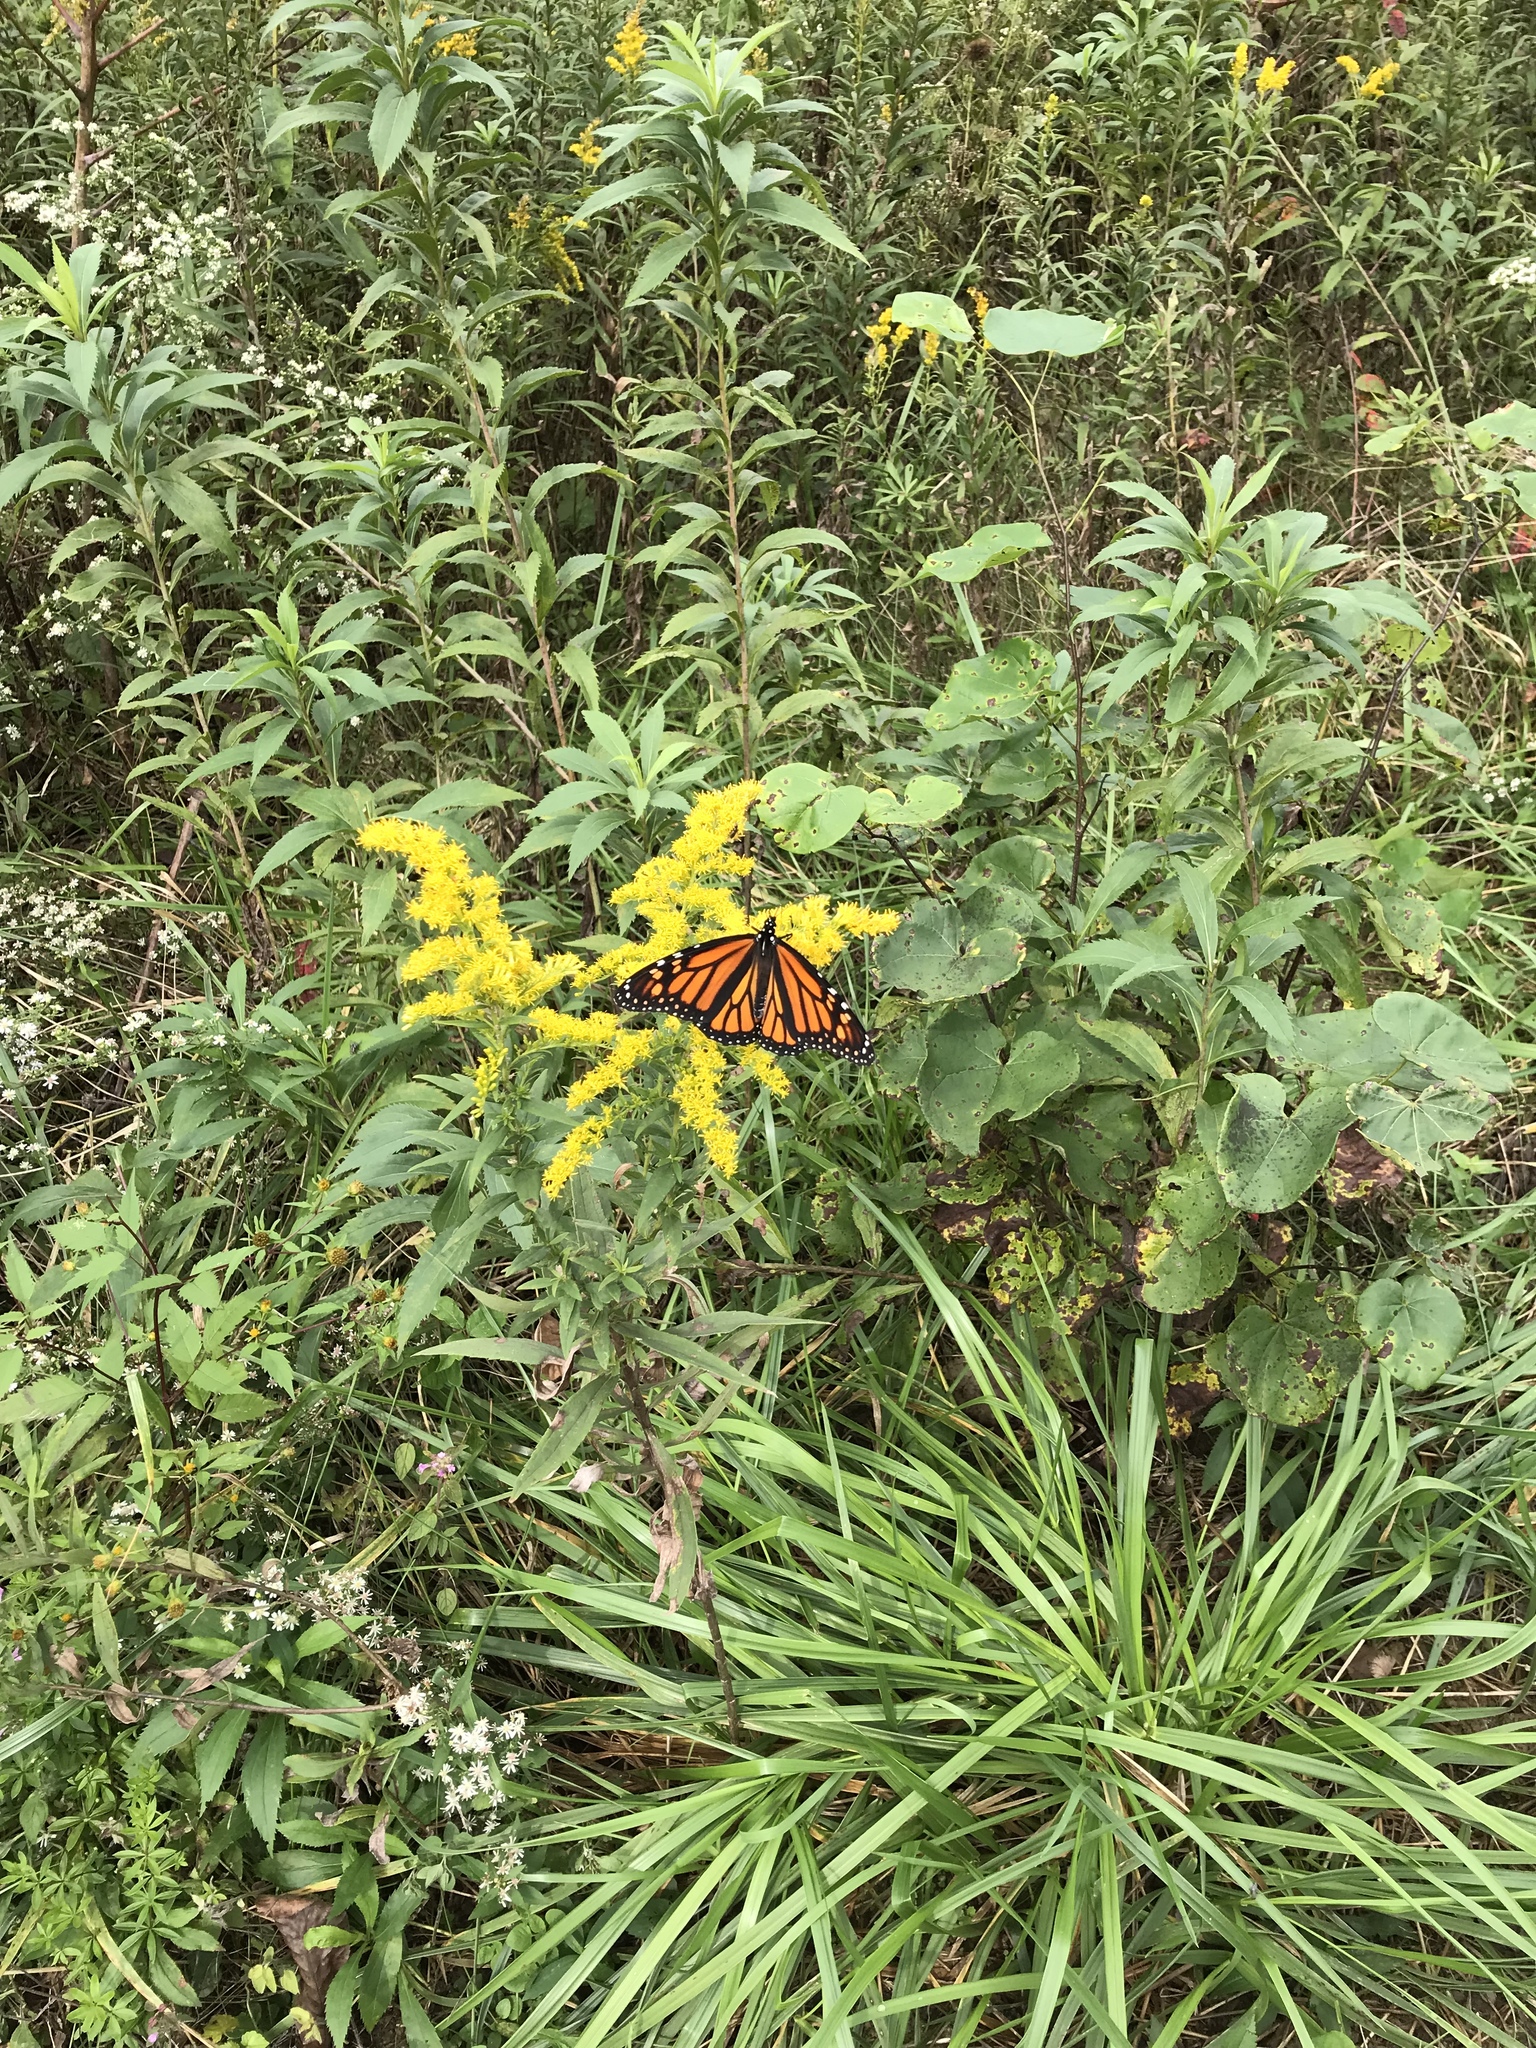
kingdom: Animalia
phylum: Arthropoda
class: Insecta
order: Lepidoptera
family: Nymphalidae
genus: Danaus
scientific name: Danaus plexippus
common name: Monarch
